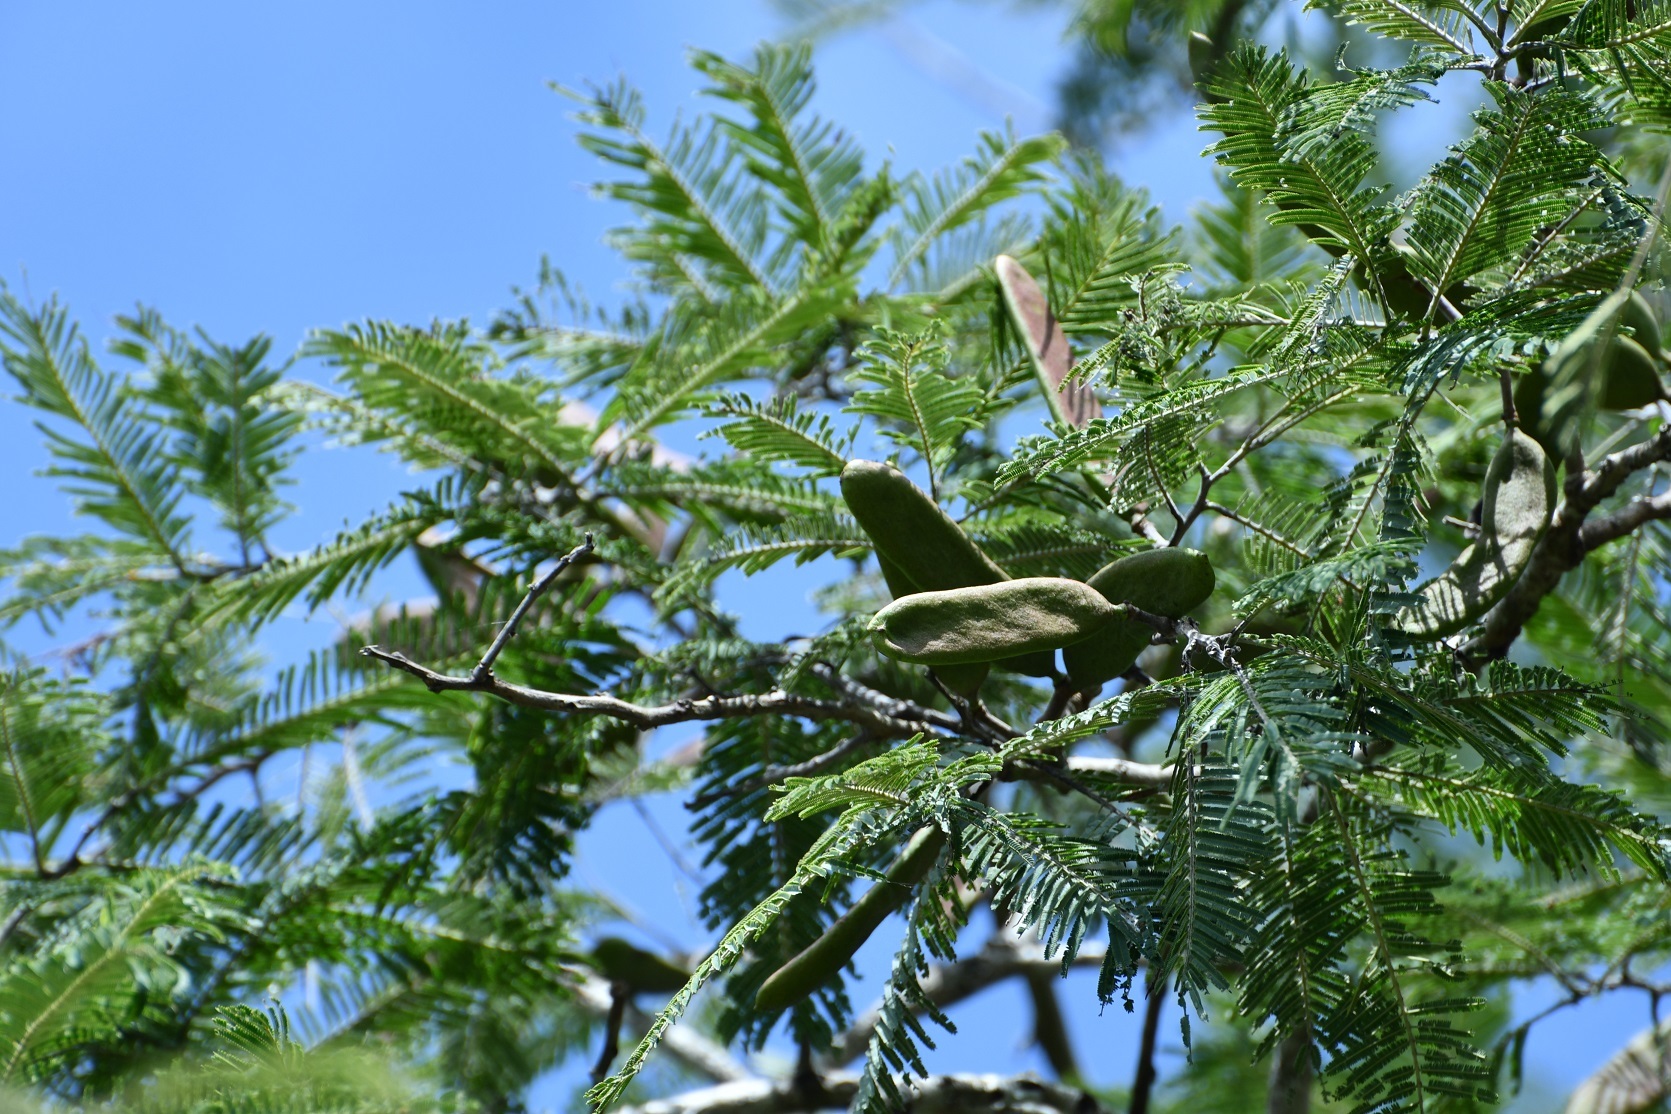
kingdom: Plantae
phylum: Tracheophyta
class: Magnoliopsida
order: Fabales
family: Fabaceae
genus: Vachellia
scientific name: Vachellia pennatula
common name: Fern-leaf acacia
